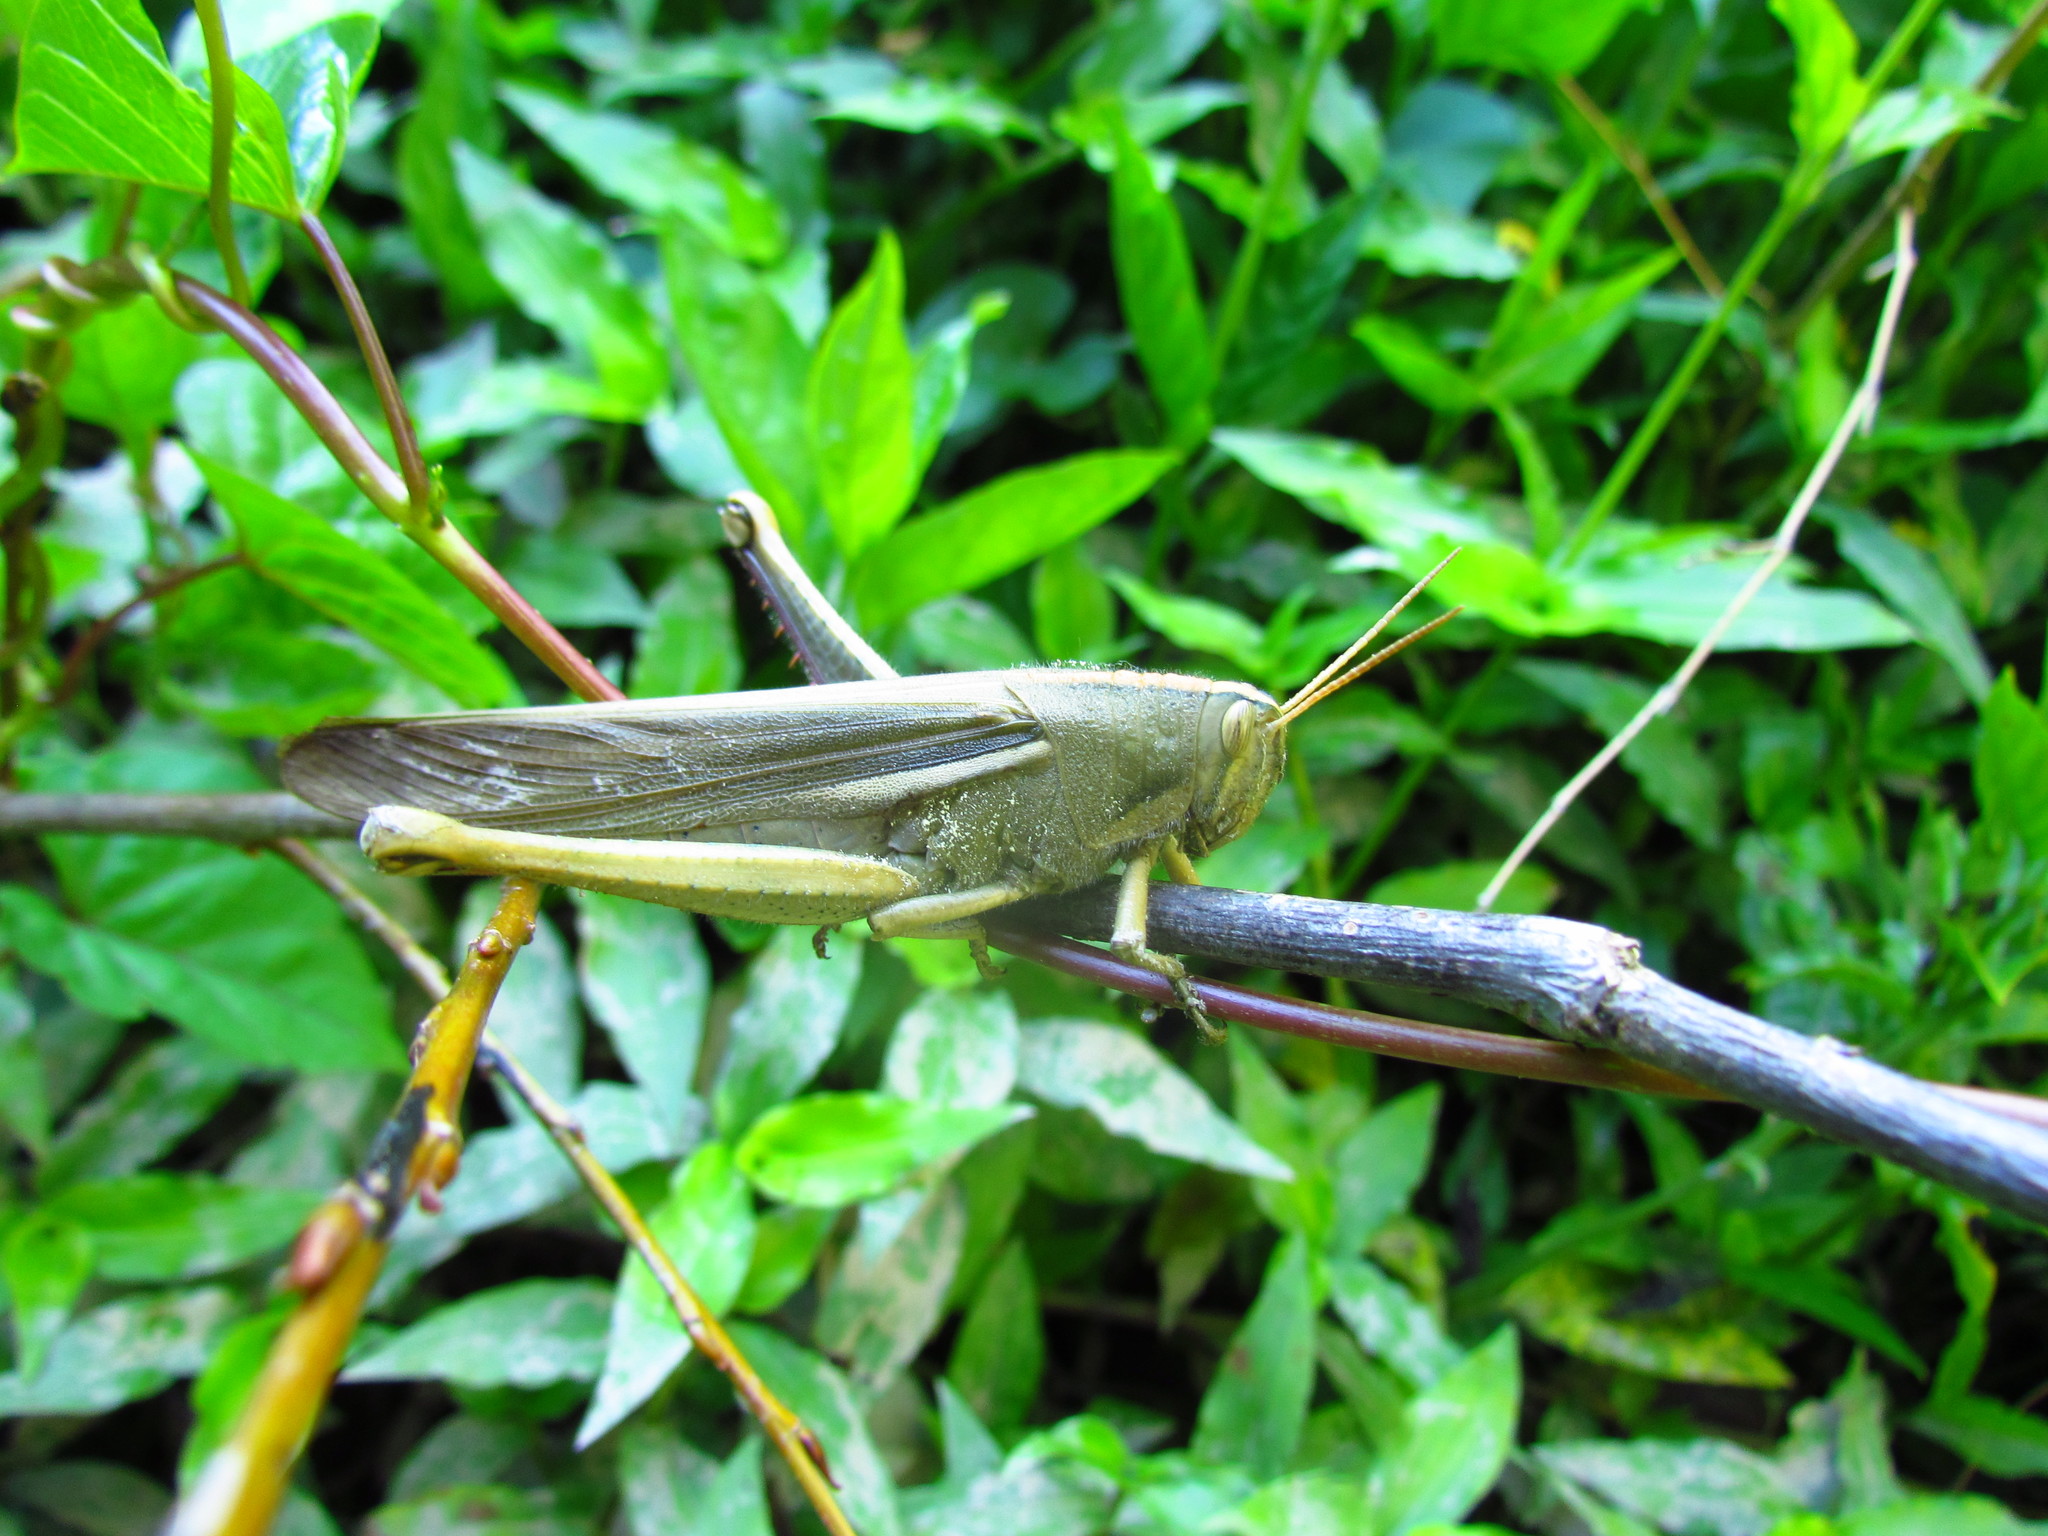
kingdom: Animalia
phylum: Arthropoda
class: Insecta
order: Orthoptera
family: Acrididae
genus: Schistocerca
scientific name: Schistocerca flavofasciata
